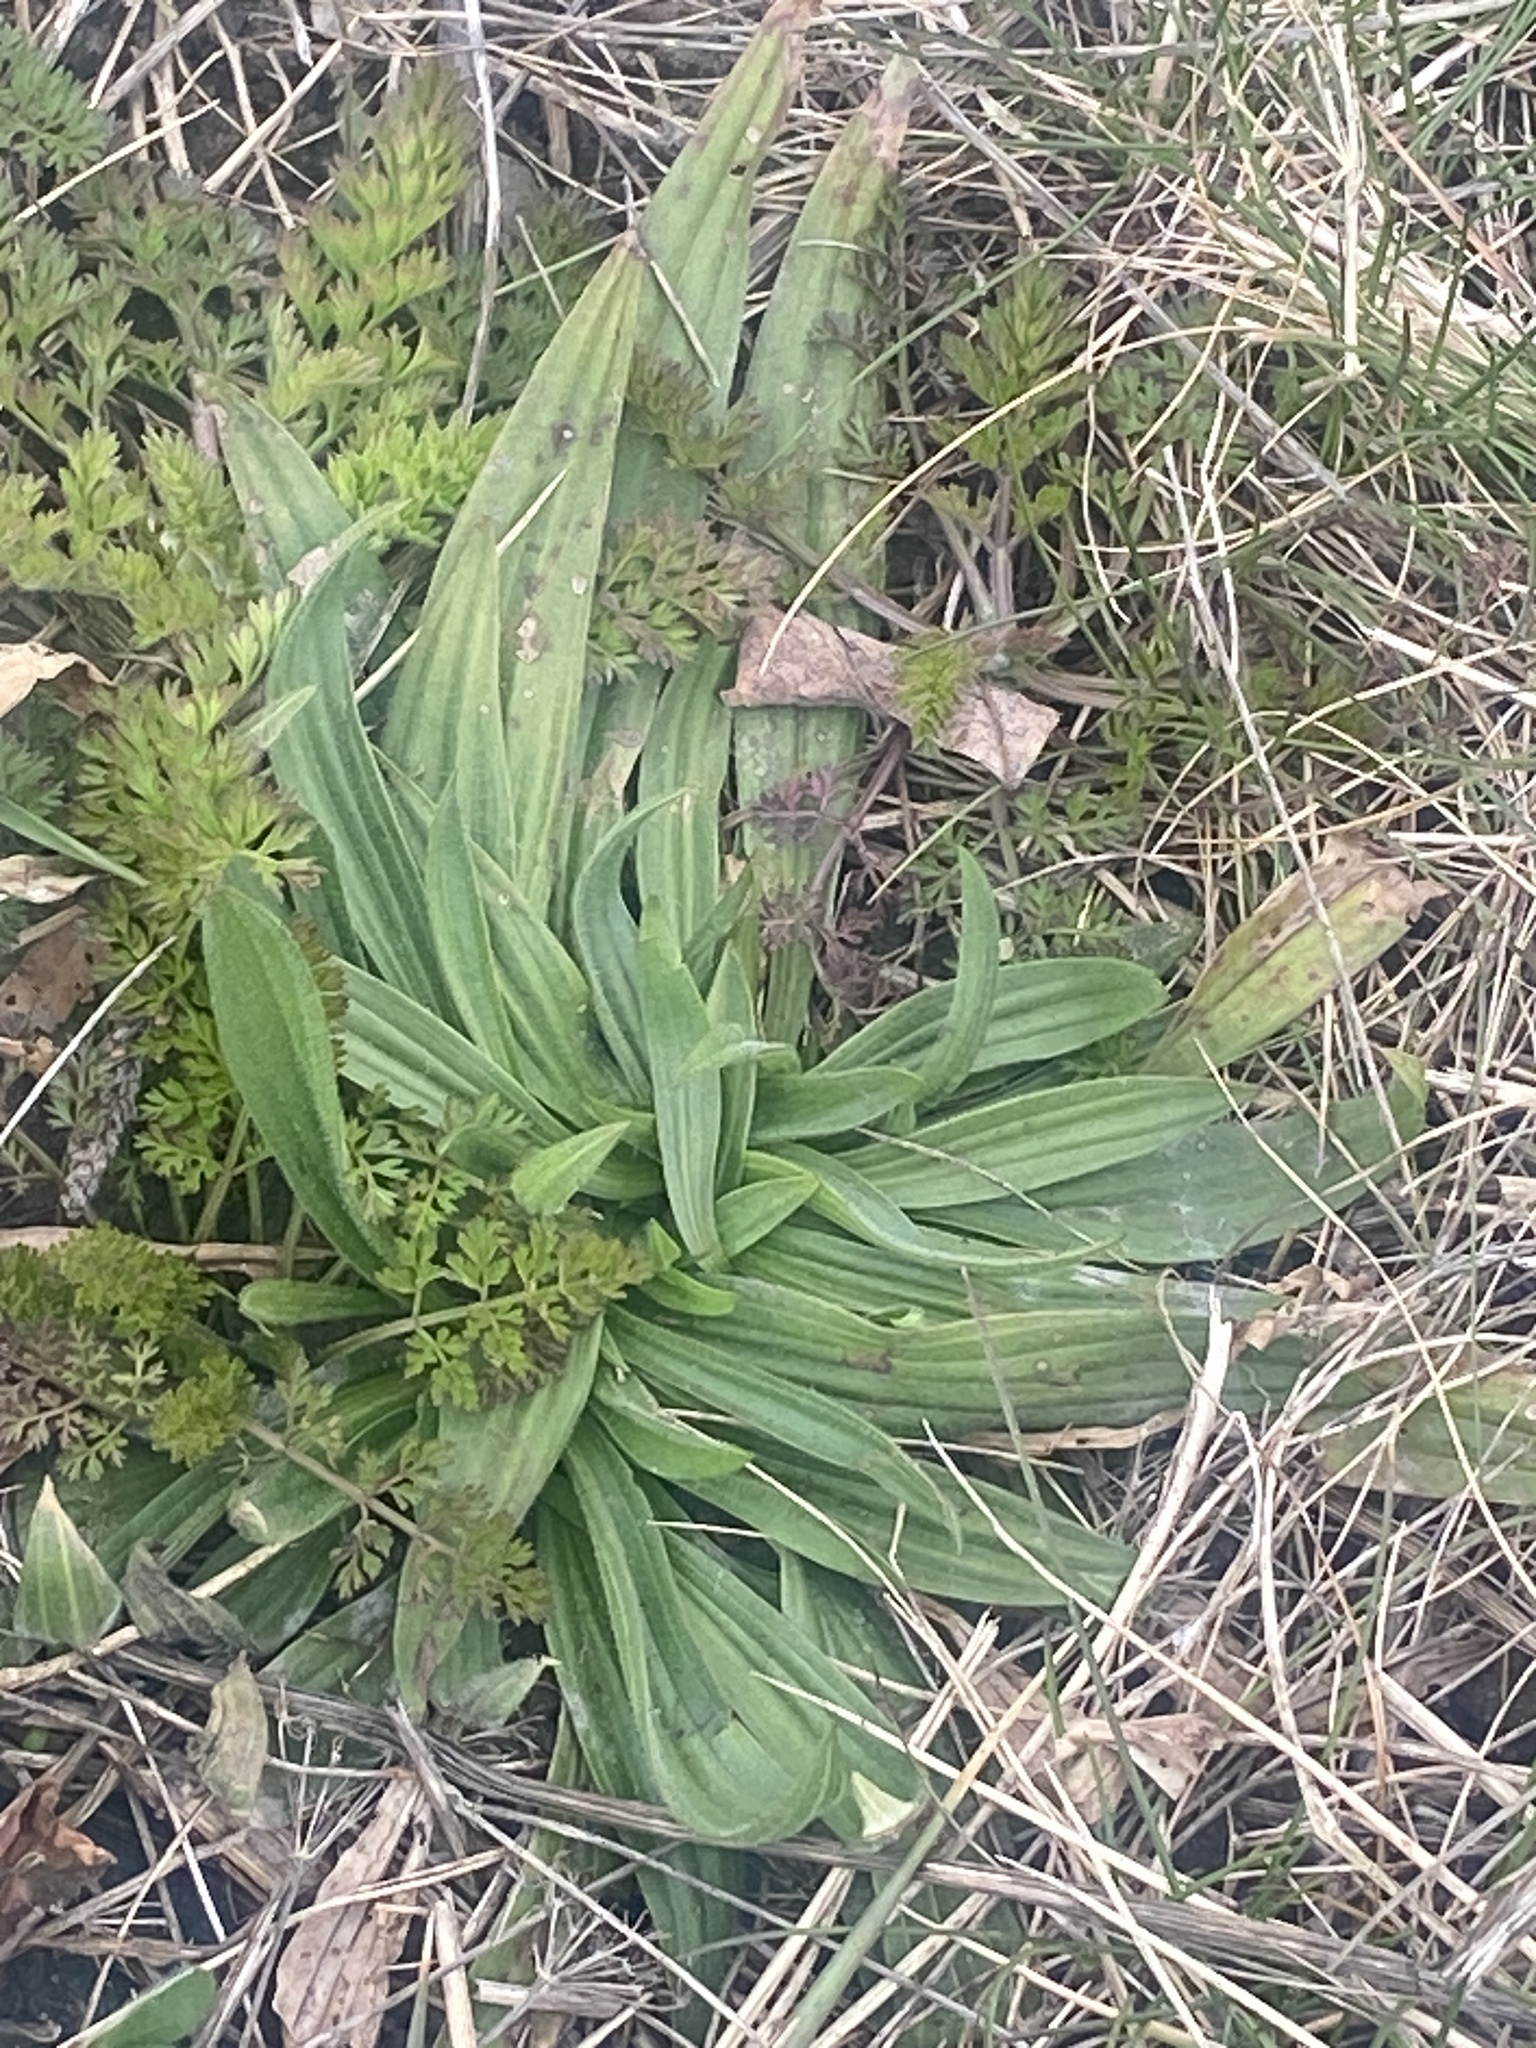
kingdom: Plantae
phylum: Tracheophyta
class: Magnoliopsida
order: Lamiales
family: Plantaginaceae
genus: Plantago
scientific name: Plantago lanceolata
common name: Ribwort plantain
